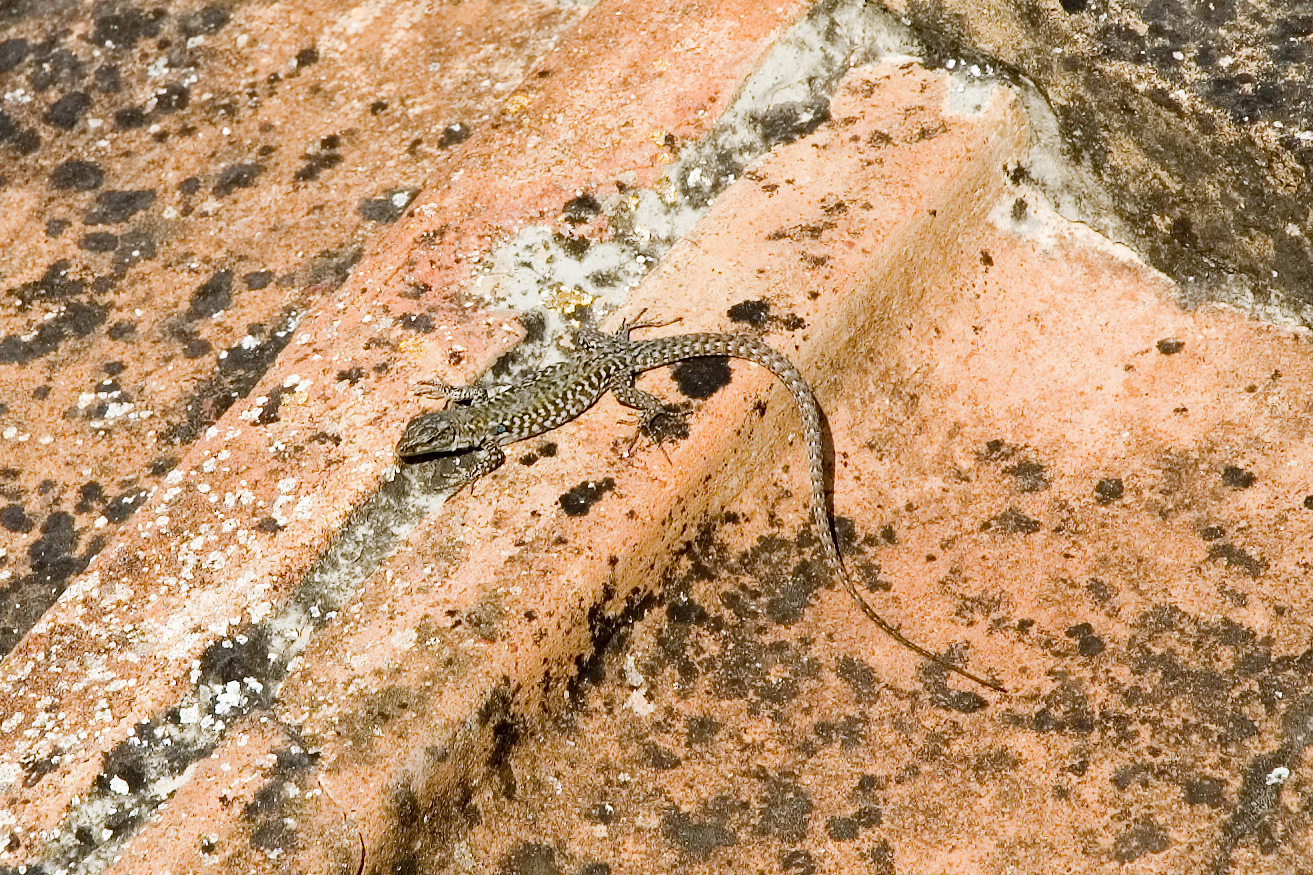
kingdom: Animalia
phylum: Chordata
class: Squamata
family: Lacertidae
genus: Podarcis
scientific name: Podarcis siculus
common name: Italian wall lizard
